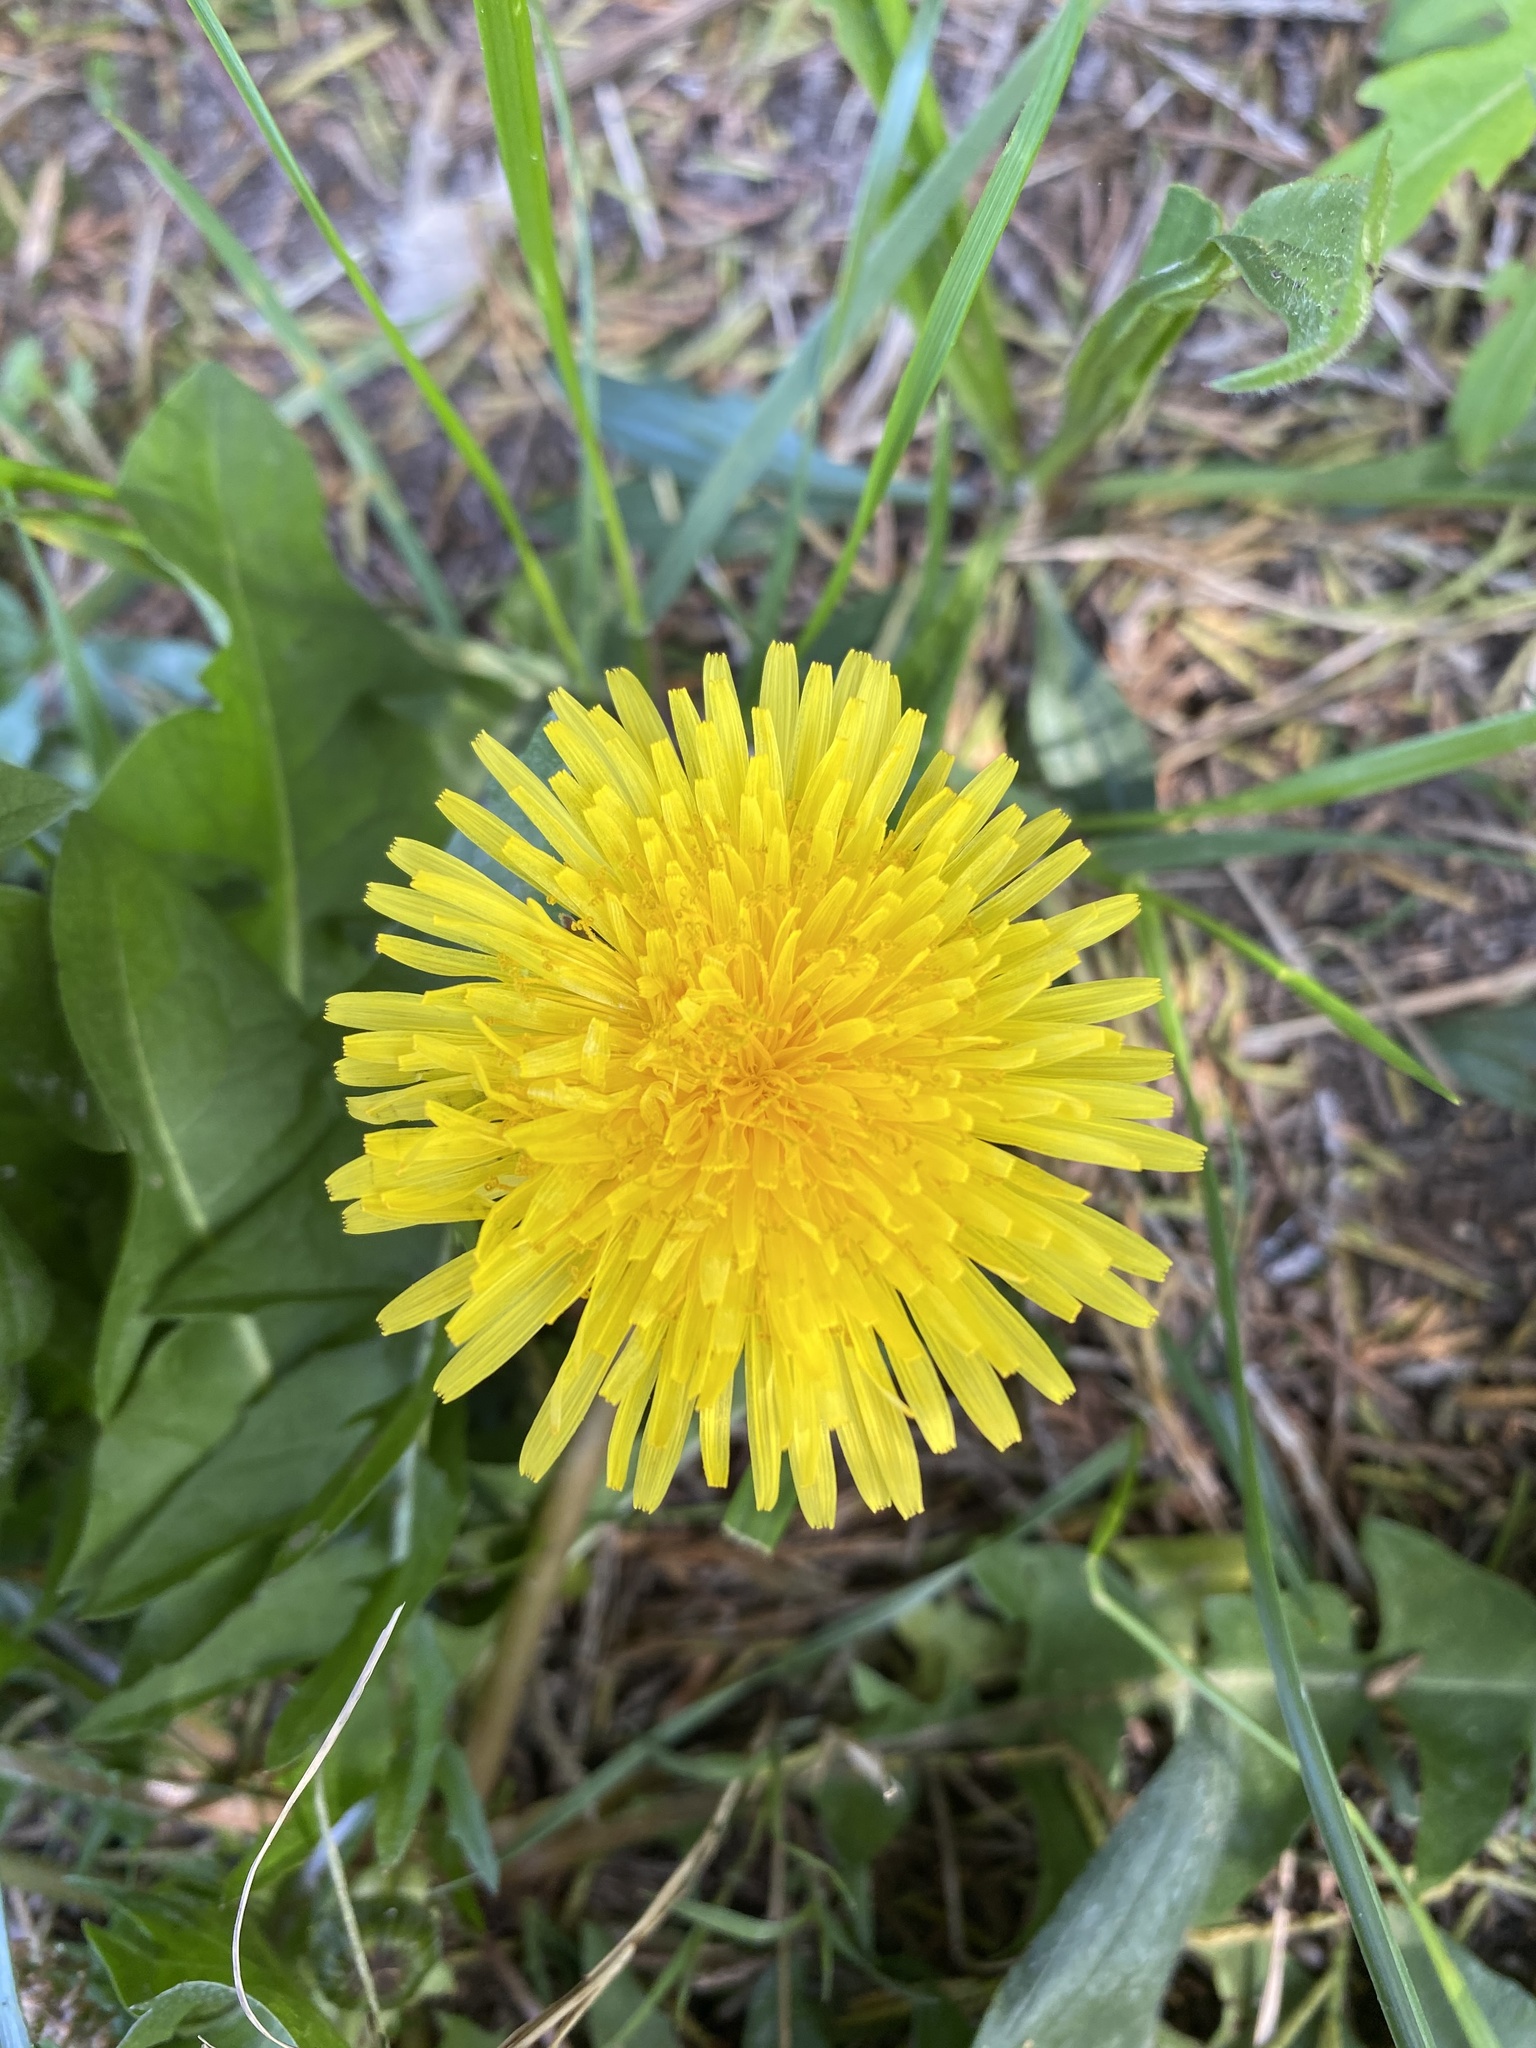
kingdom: Plantae
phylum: Tracheophyta
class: Magnoliopsida
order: Asterales
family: Asteraceae
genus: Taraxacum
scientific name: Taraxacum
